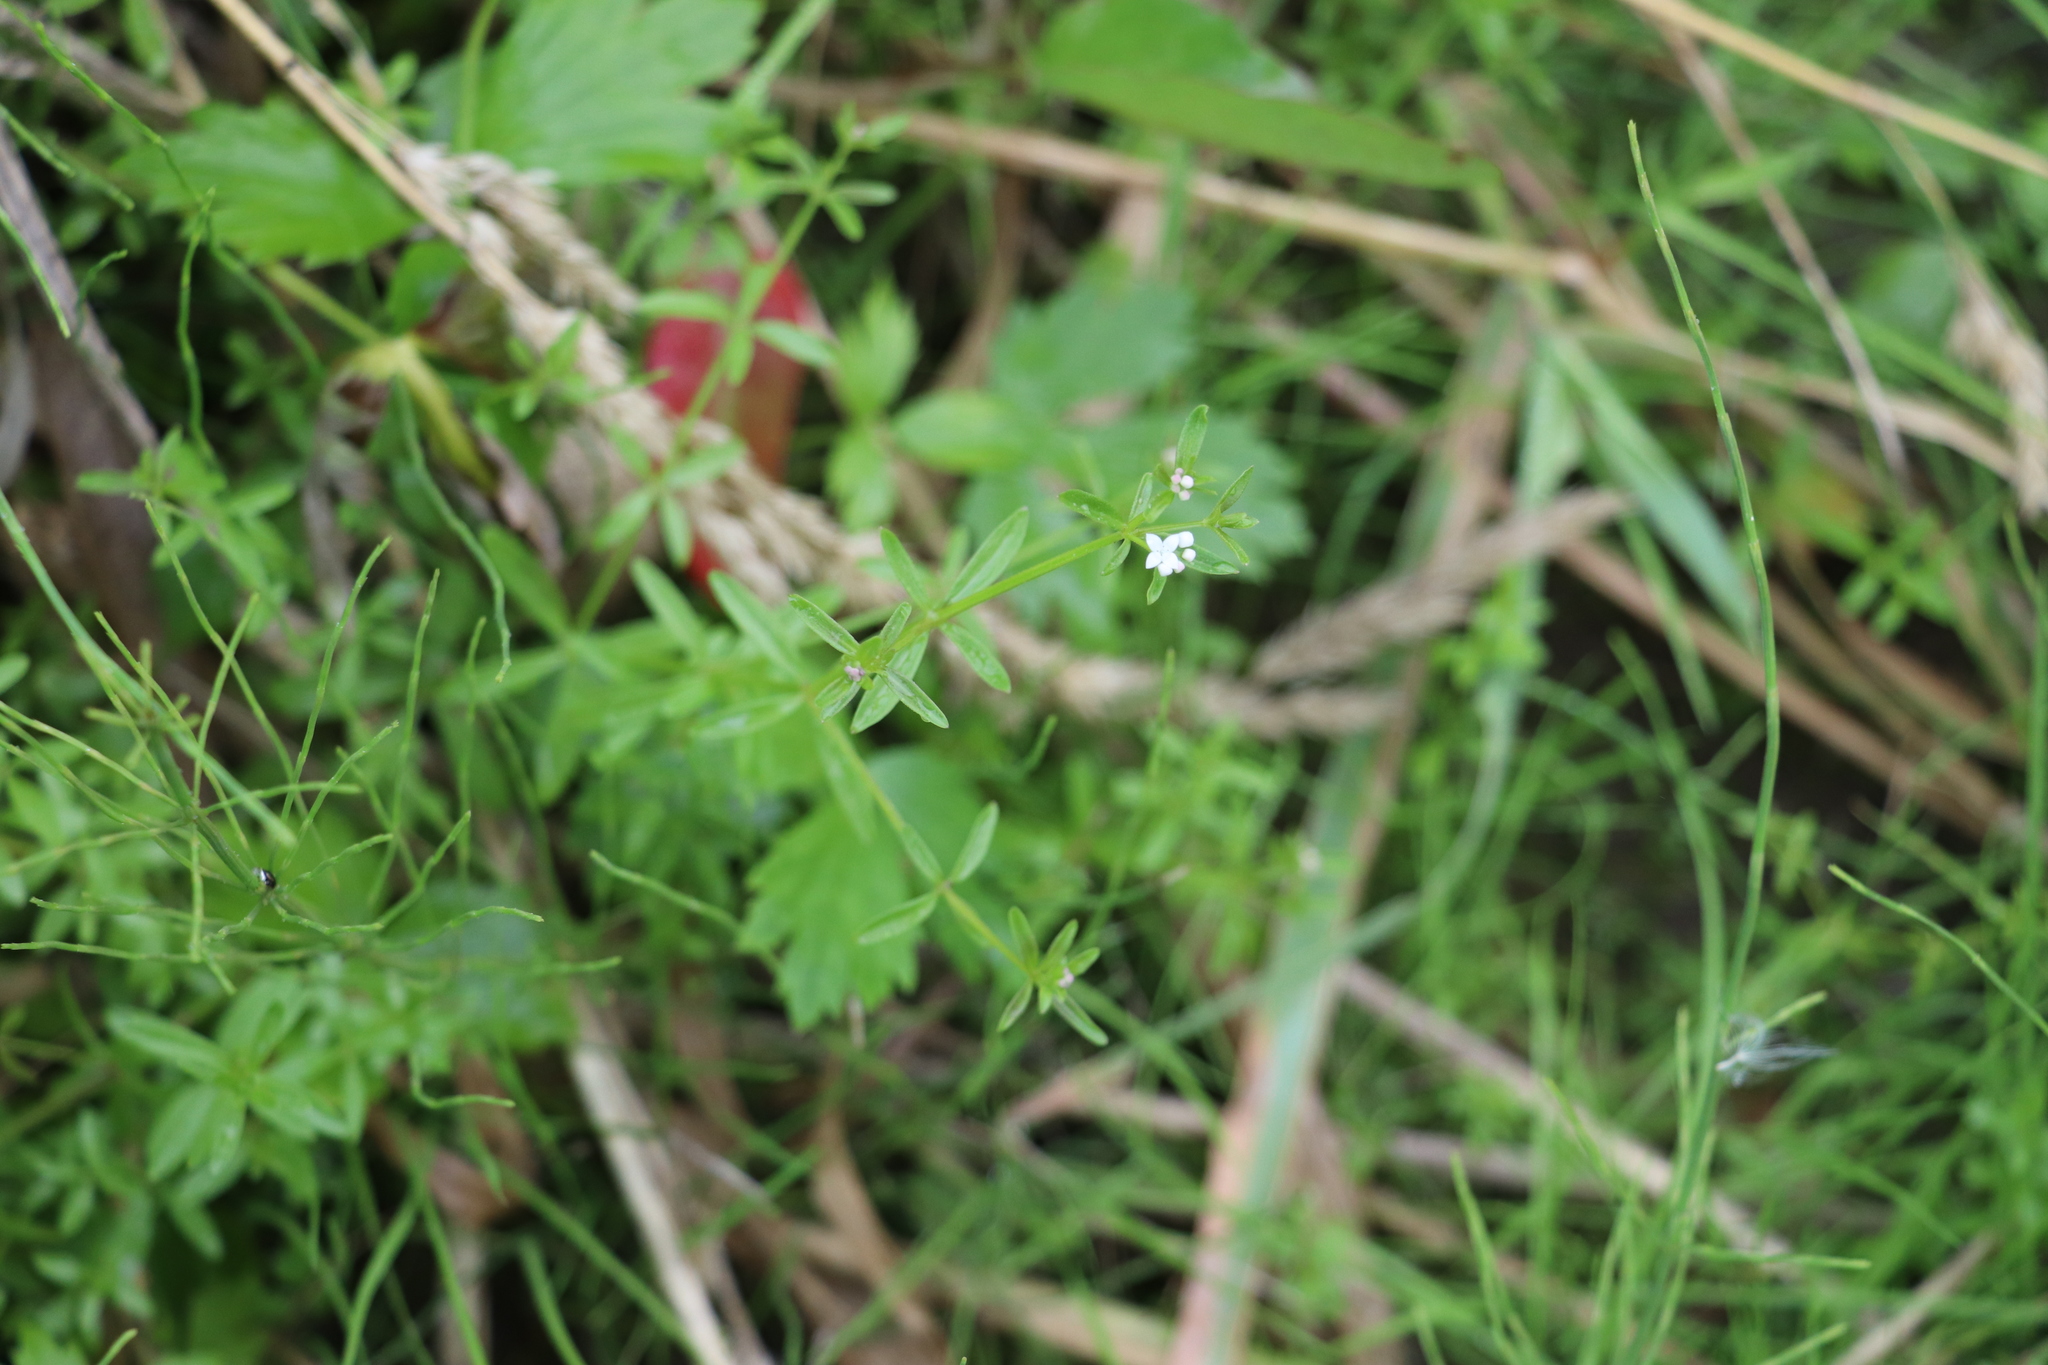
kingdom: Plantae
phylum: Tracheophyta
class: Magnoliopsida
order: Gentianales
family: Rubiaceae
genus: Galium
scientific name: Galium palustre
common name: Common marsh-bedstraw
